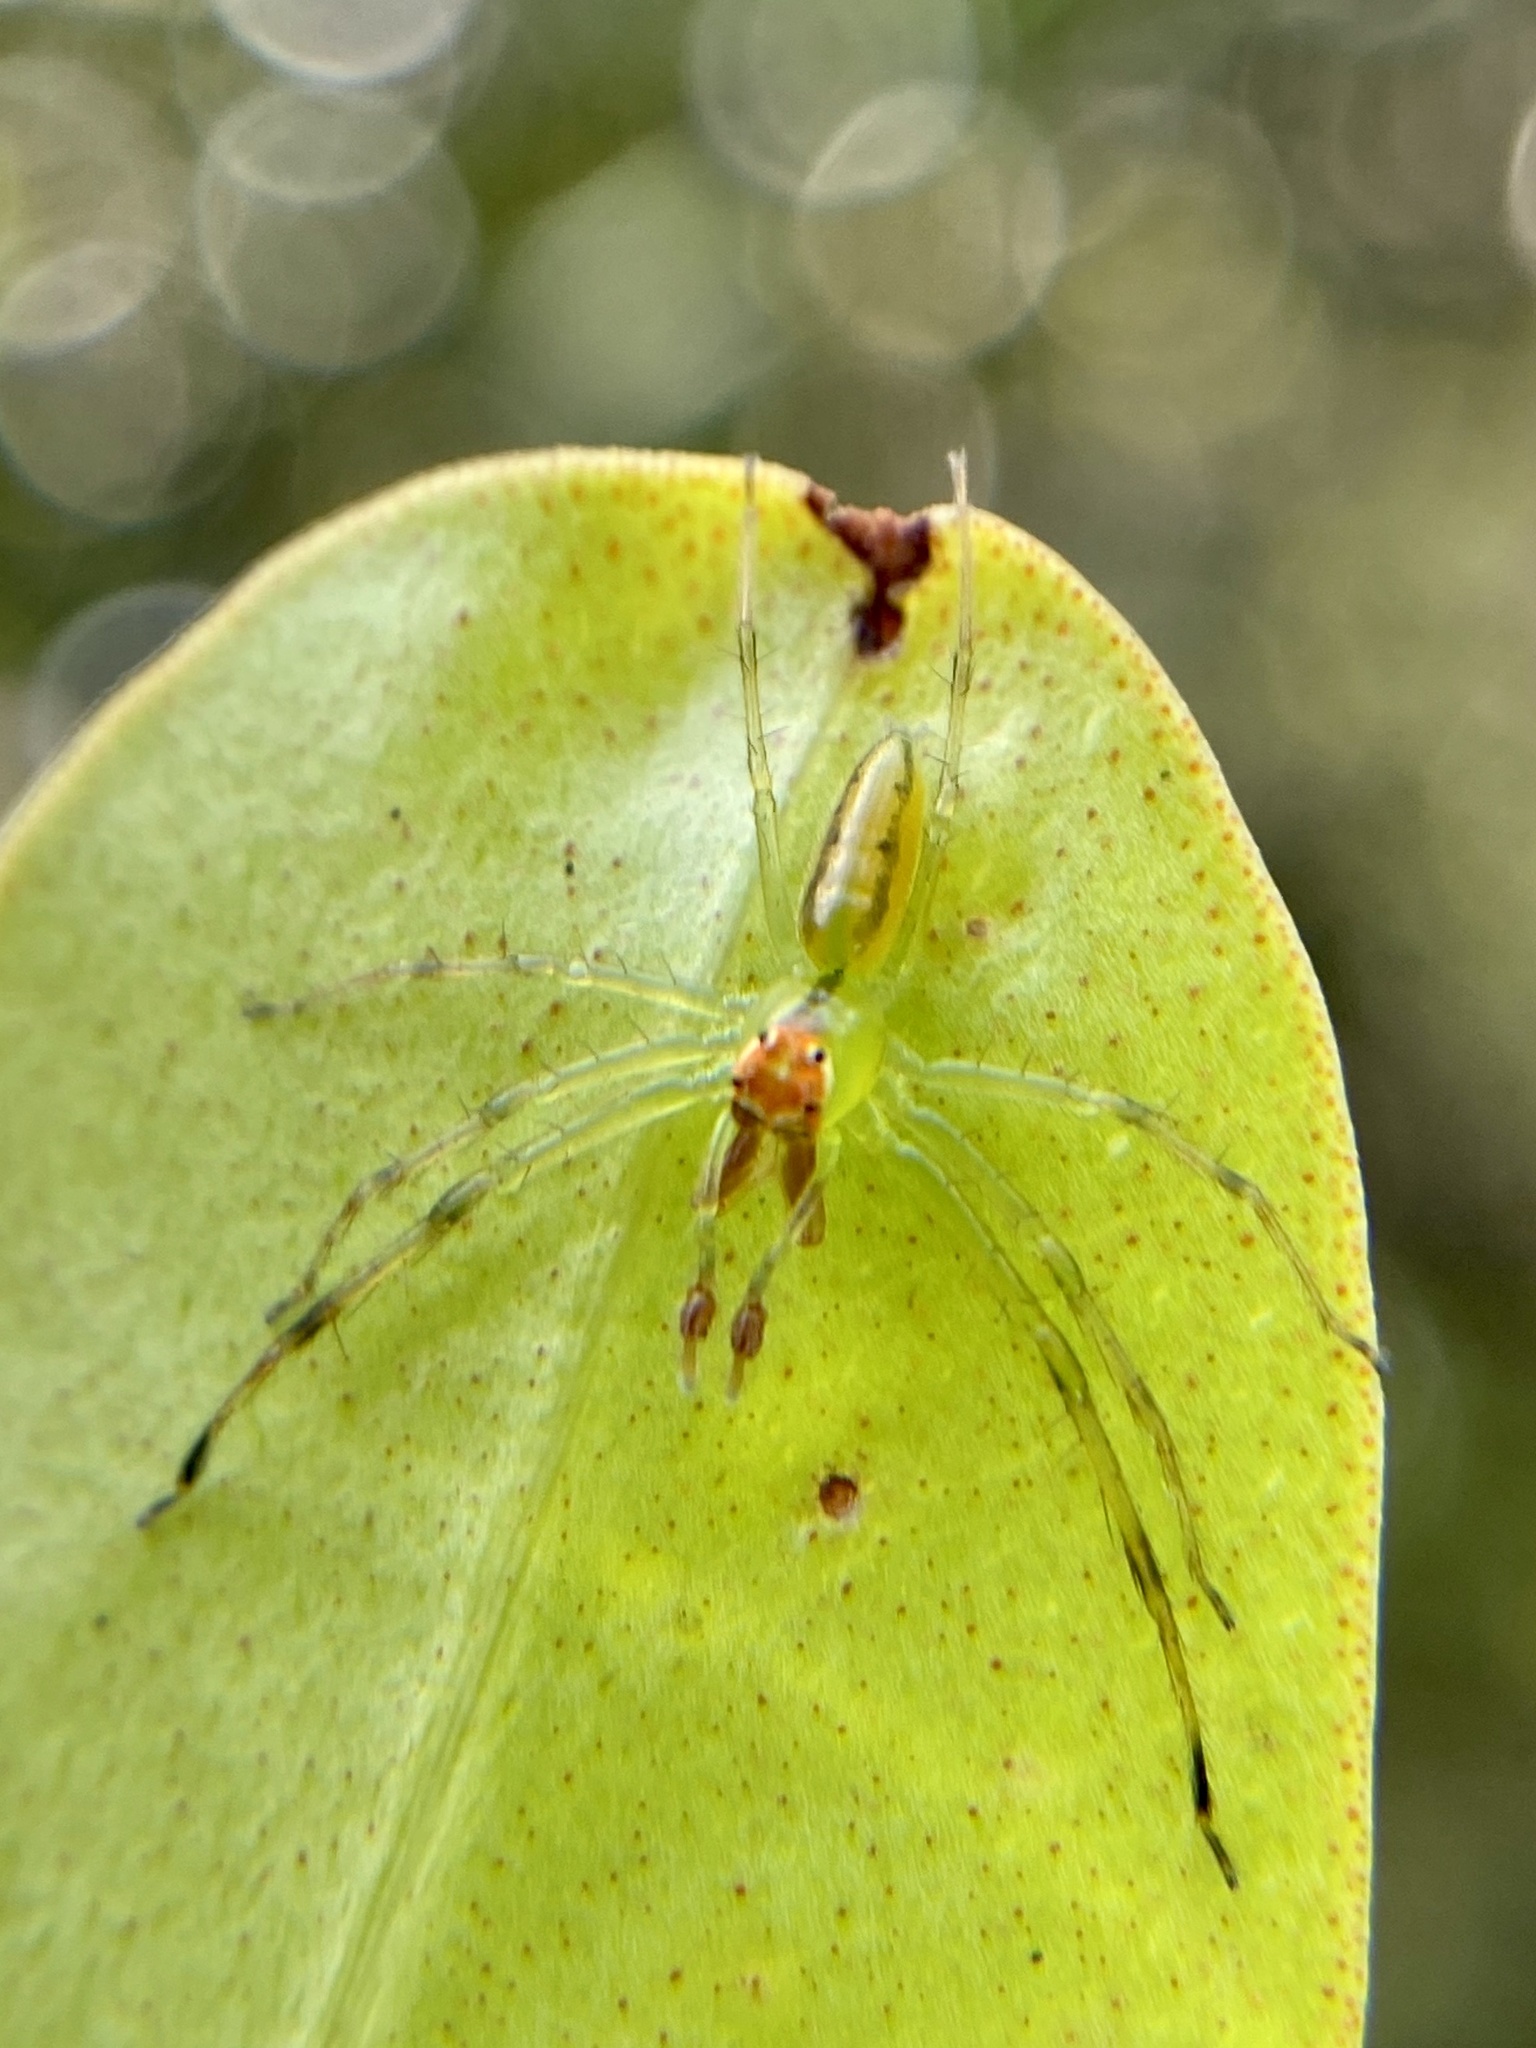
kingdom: Animalia
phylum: Arthropoda
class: Arachnida
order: Araneae
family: Salticidae
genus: Lyssomanes
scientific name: Lyssomanes viridis
